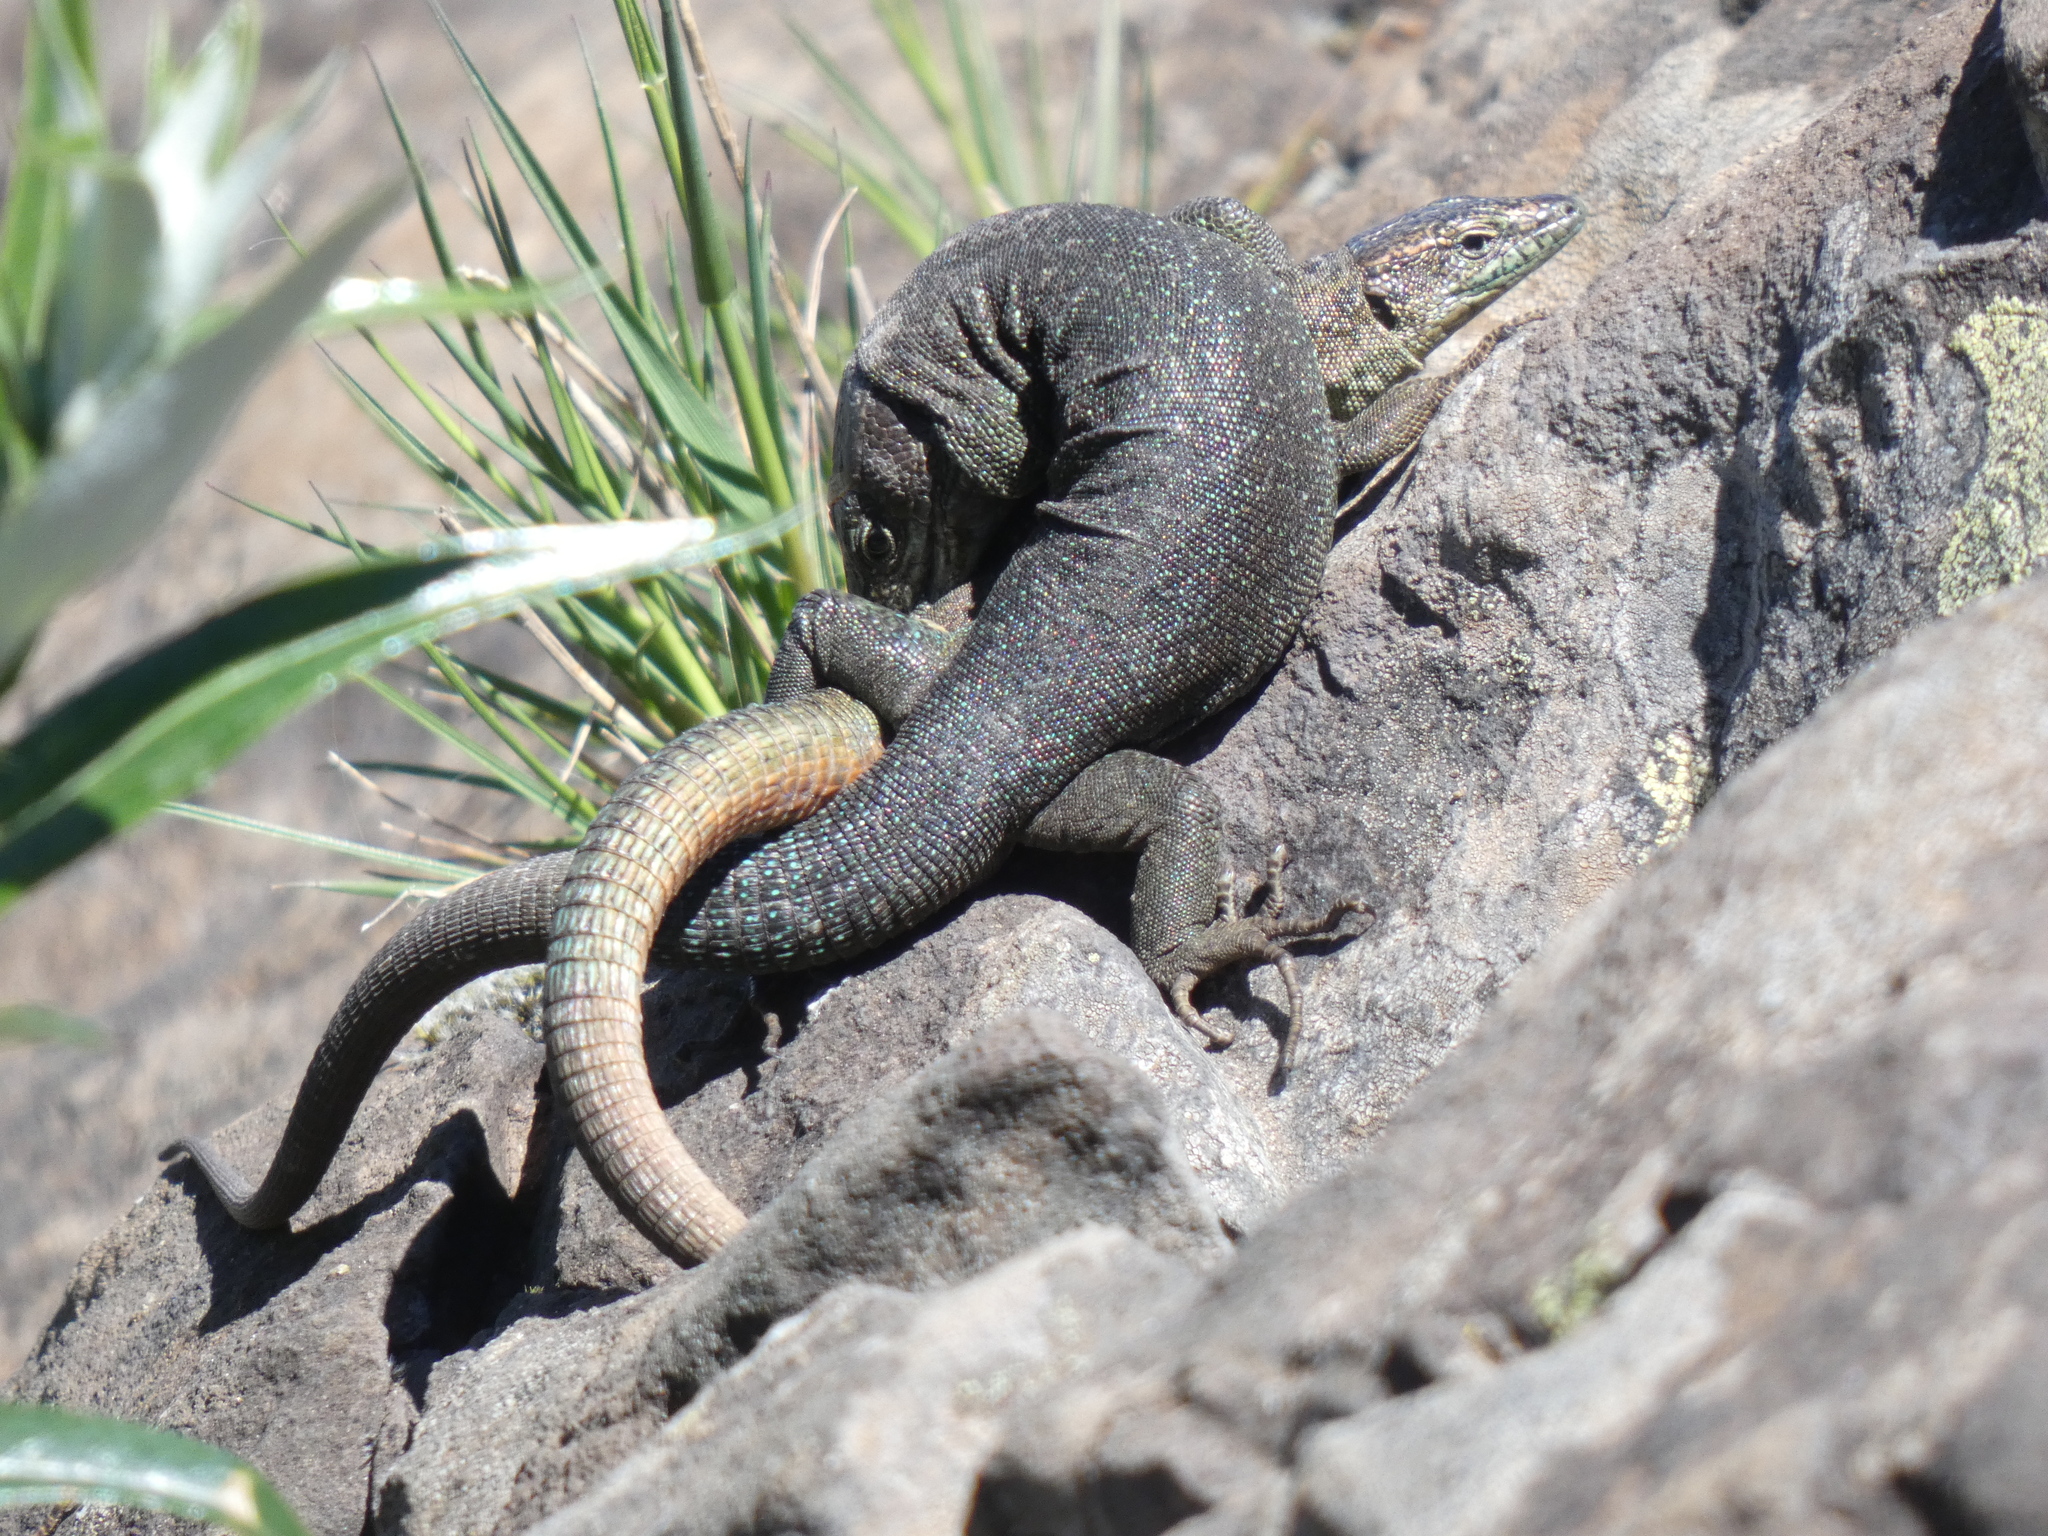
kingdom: Animalia
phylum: Chordata
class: Squamata
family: Lacertidae
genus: Teira
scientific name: Teira dugesii
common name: Madeira lizard
